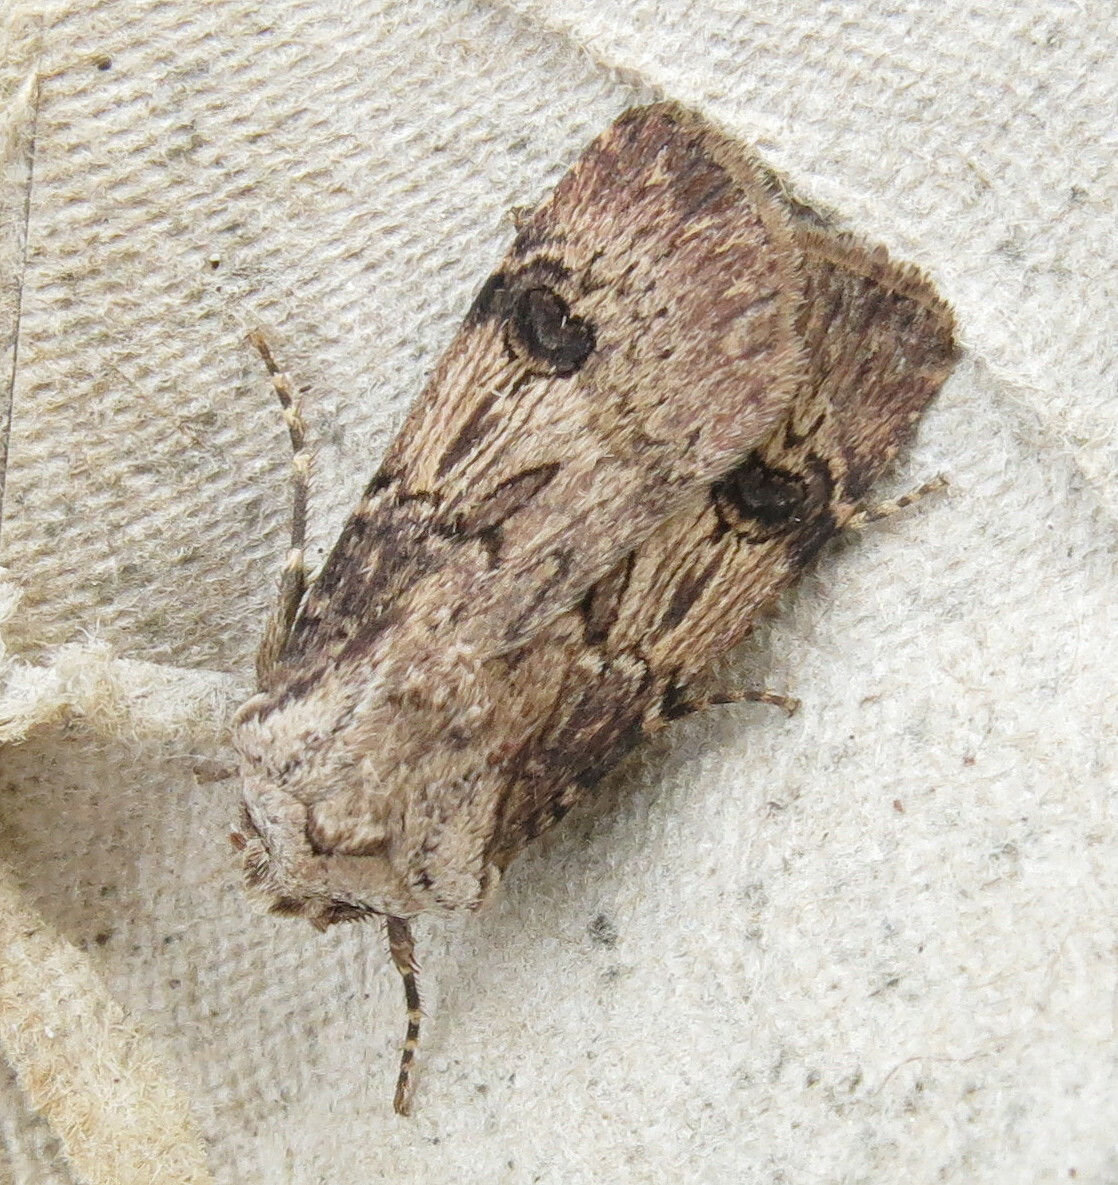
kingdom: Animalia
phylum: Arthropoda
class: Insecta
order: Lepidoptera
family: Noctuidae
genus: Agrotis
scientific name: Agrotis puta
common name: Shuttle-shaped dart
